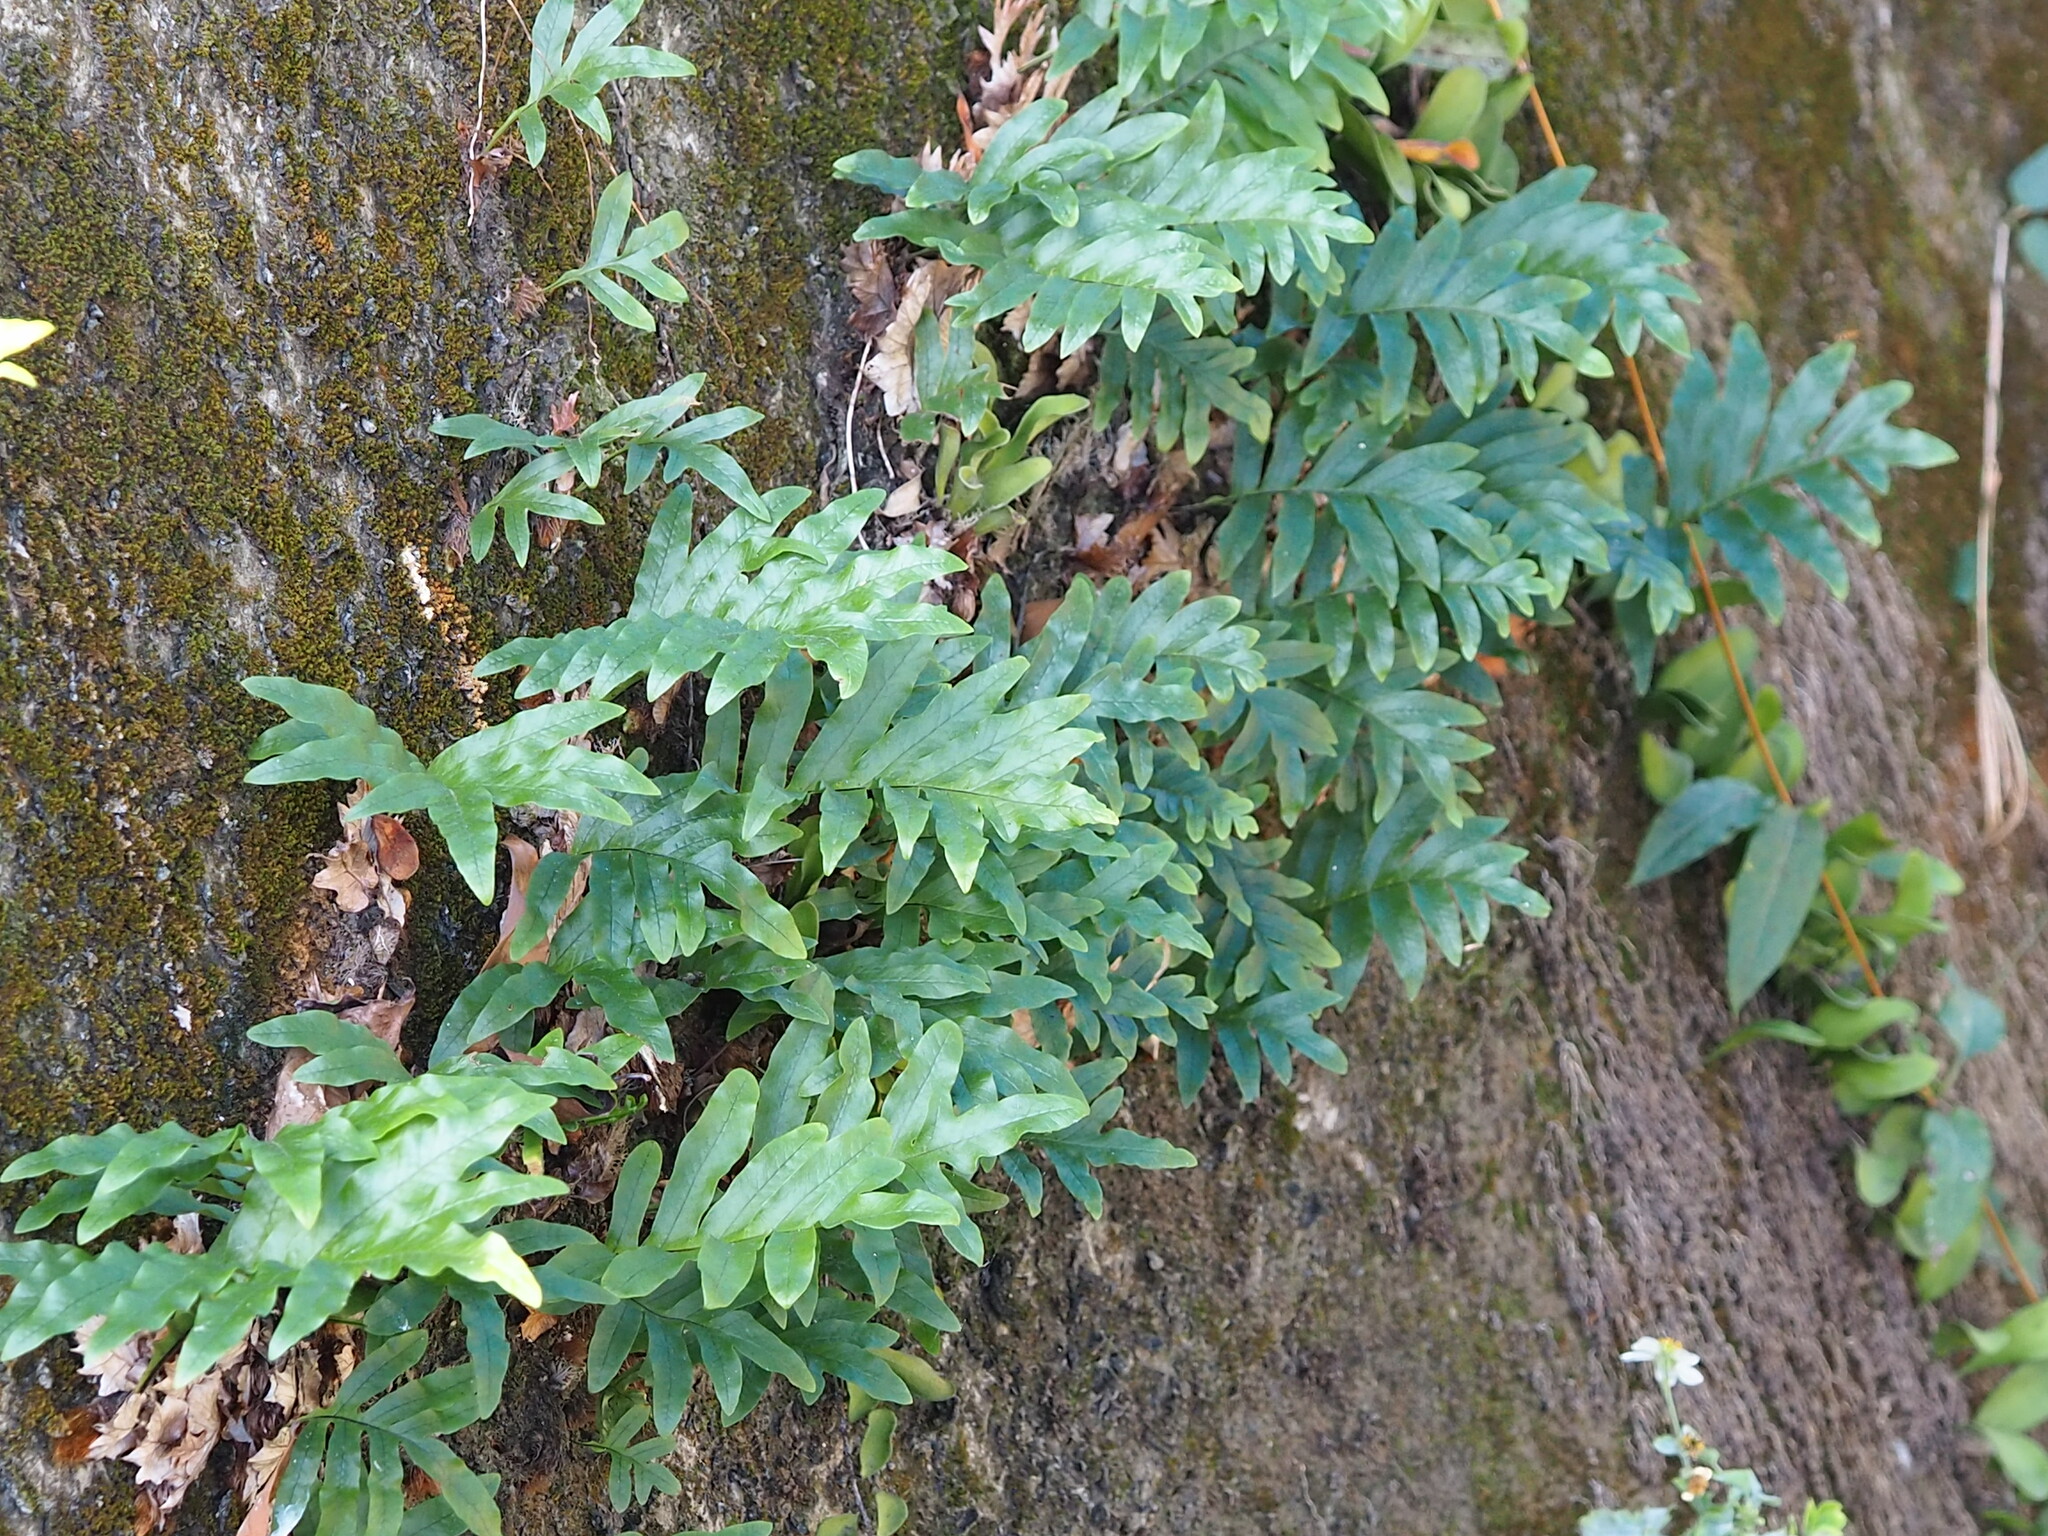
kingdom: Plantae
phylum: Tracheophyta
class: Polypodiopsida
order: Polypodiales
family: Polypodiaceae
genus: Drynaria
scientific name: Drynaria roosii
